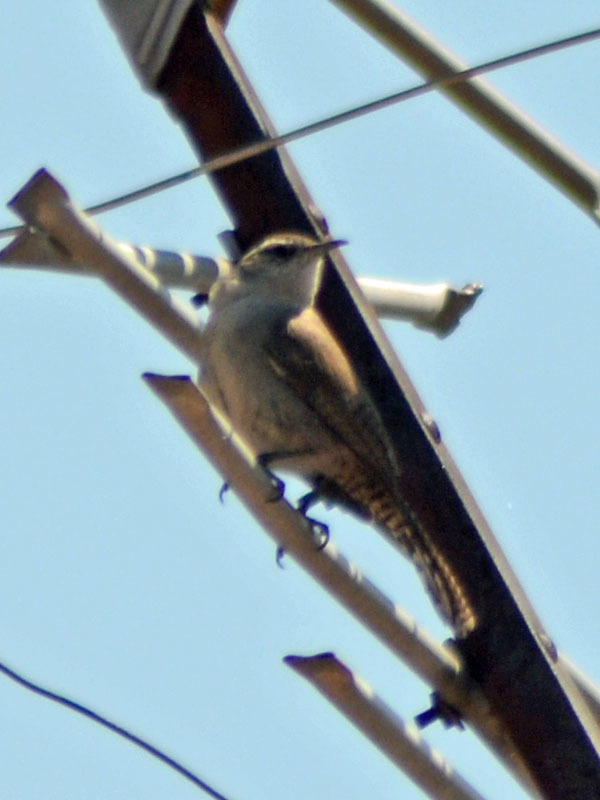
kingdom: Animalia
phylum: Chordata
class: Aves
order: Passeriformes
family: Troglodytidae
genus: Thryomanes
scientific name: Thryomanes bewickii
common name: Bewick's wren
